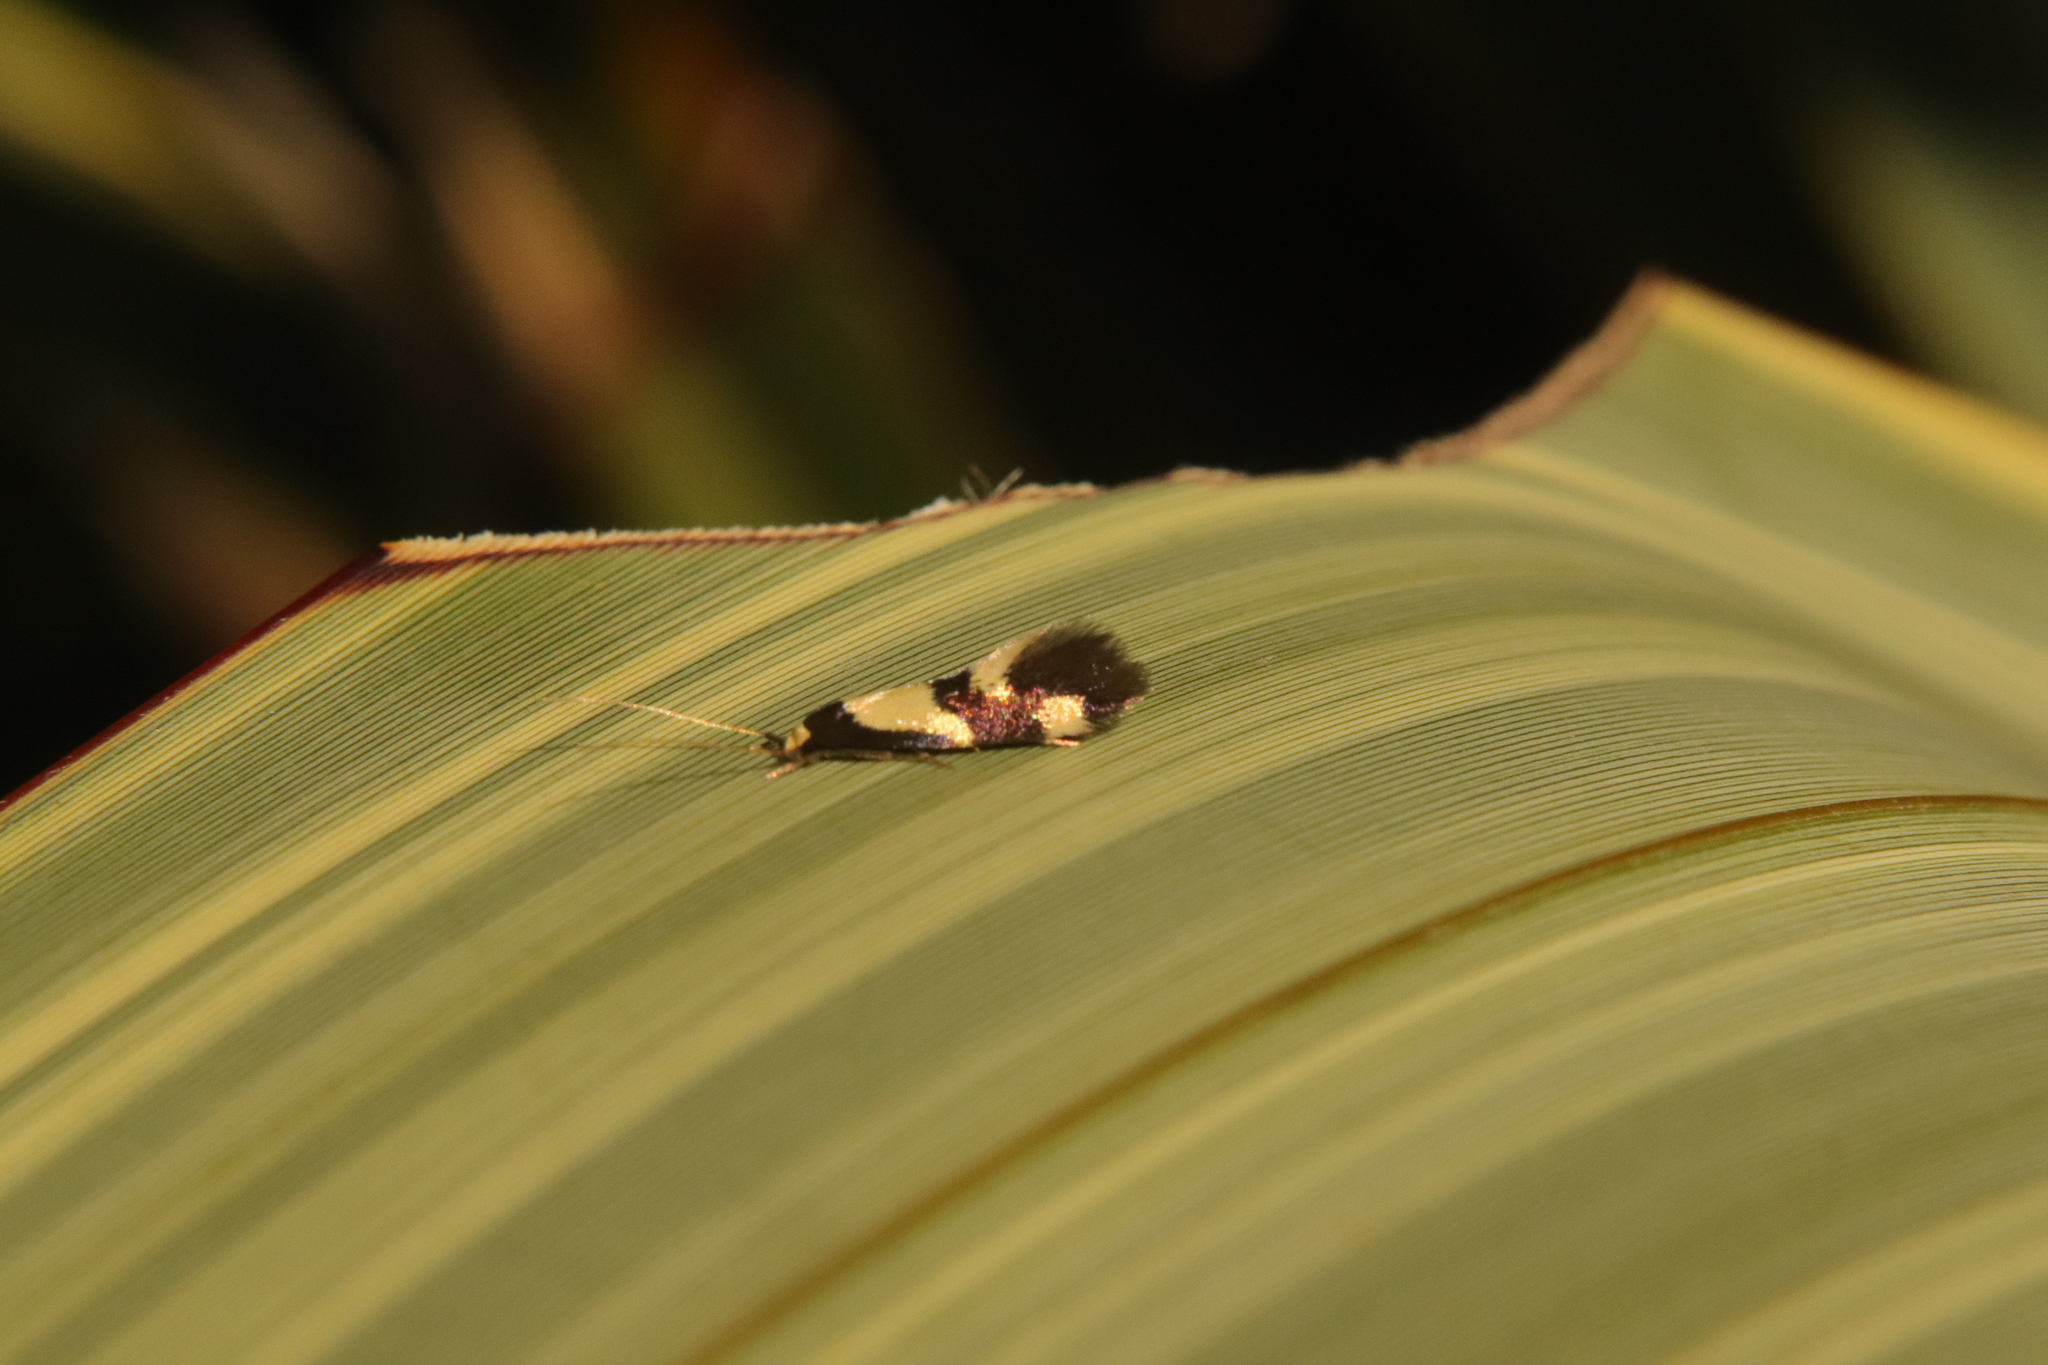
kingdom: Animalia
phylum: Arthropoda
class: Insecta
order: Lepidoptera
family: Tineidae
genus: Opogona
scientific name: Opogona comptella
